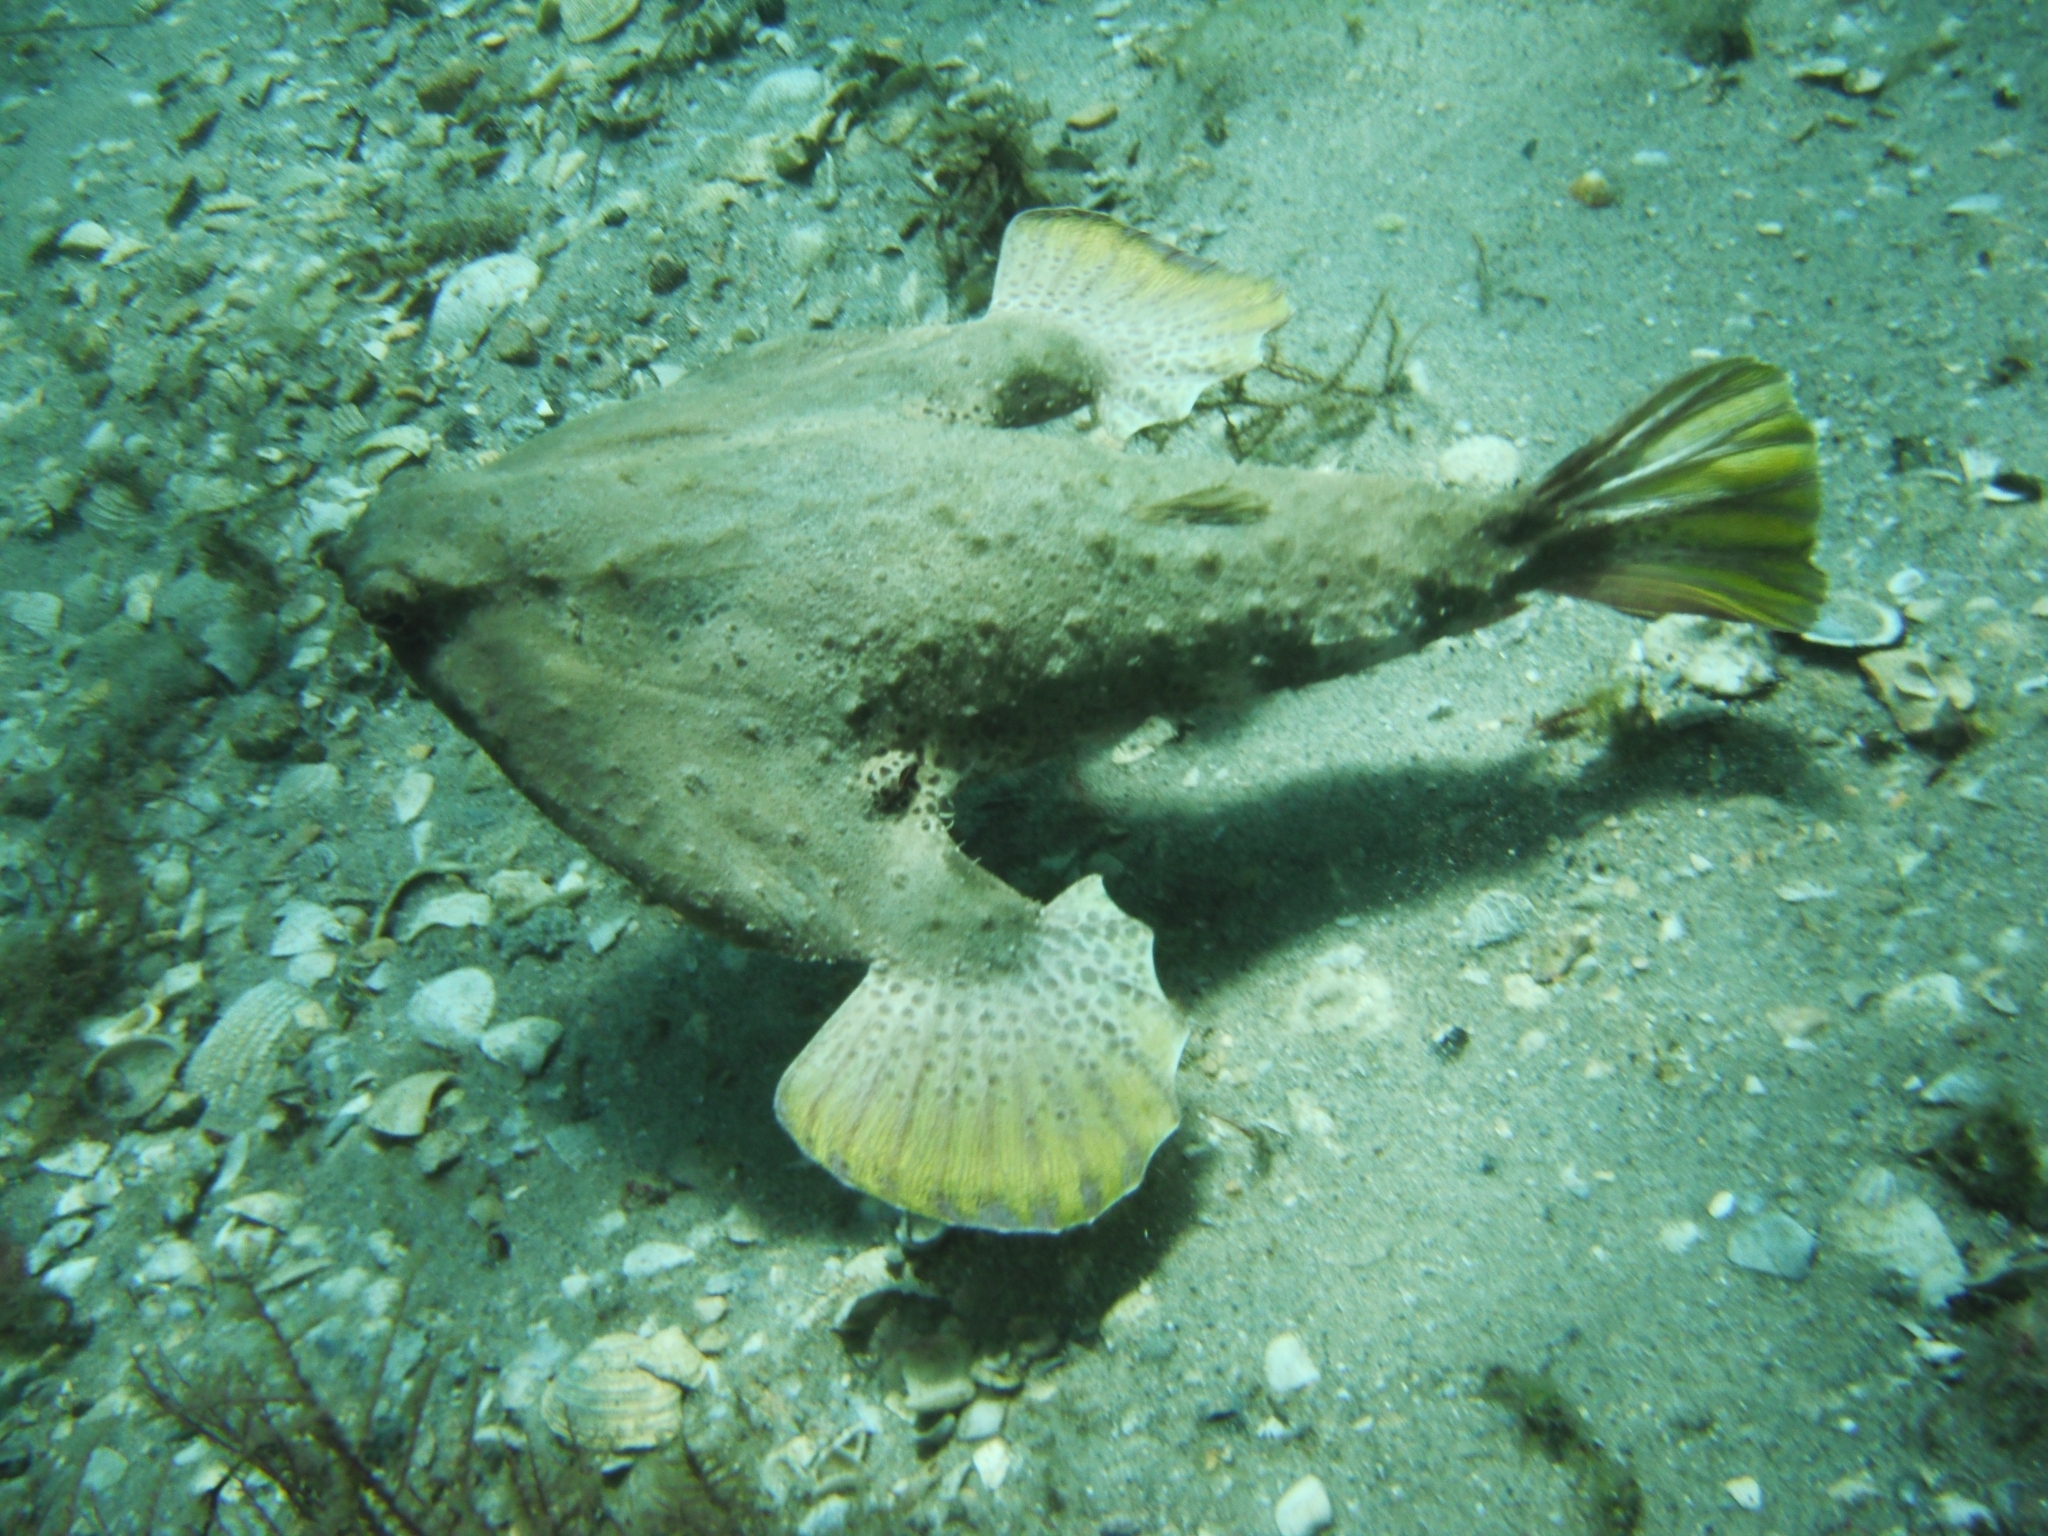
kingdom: Animalia
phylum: Chordata
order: Lophiiformes
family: Ogcocephalidae
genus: Ogcocephalus
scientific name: Ogcocephalus cubifrons
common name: Polka-dot batfish
